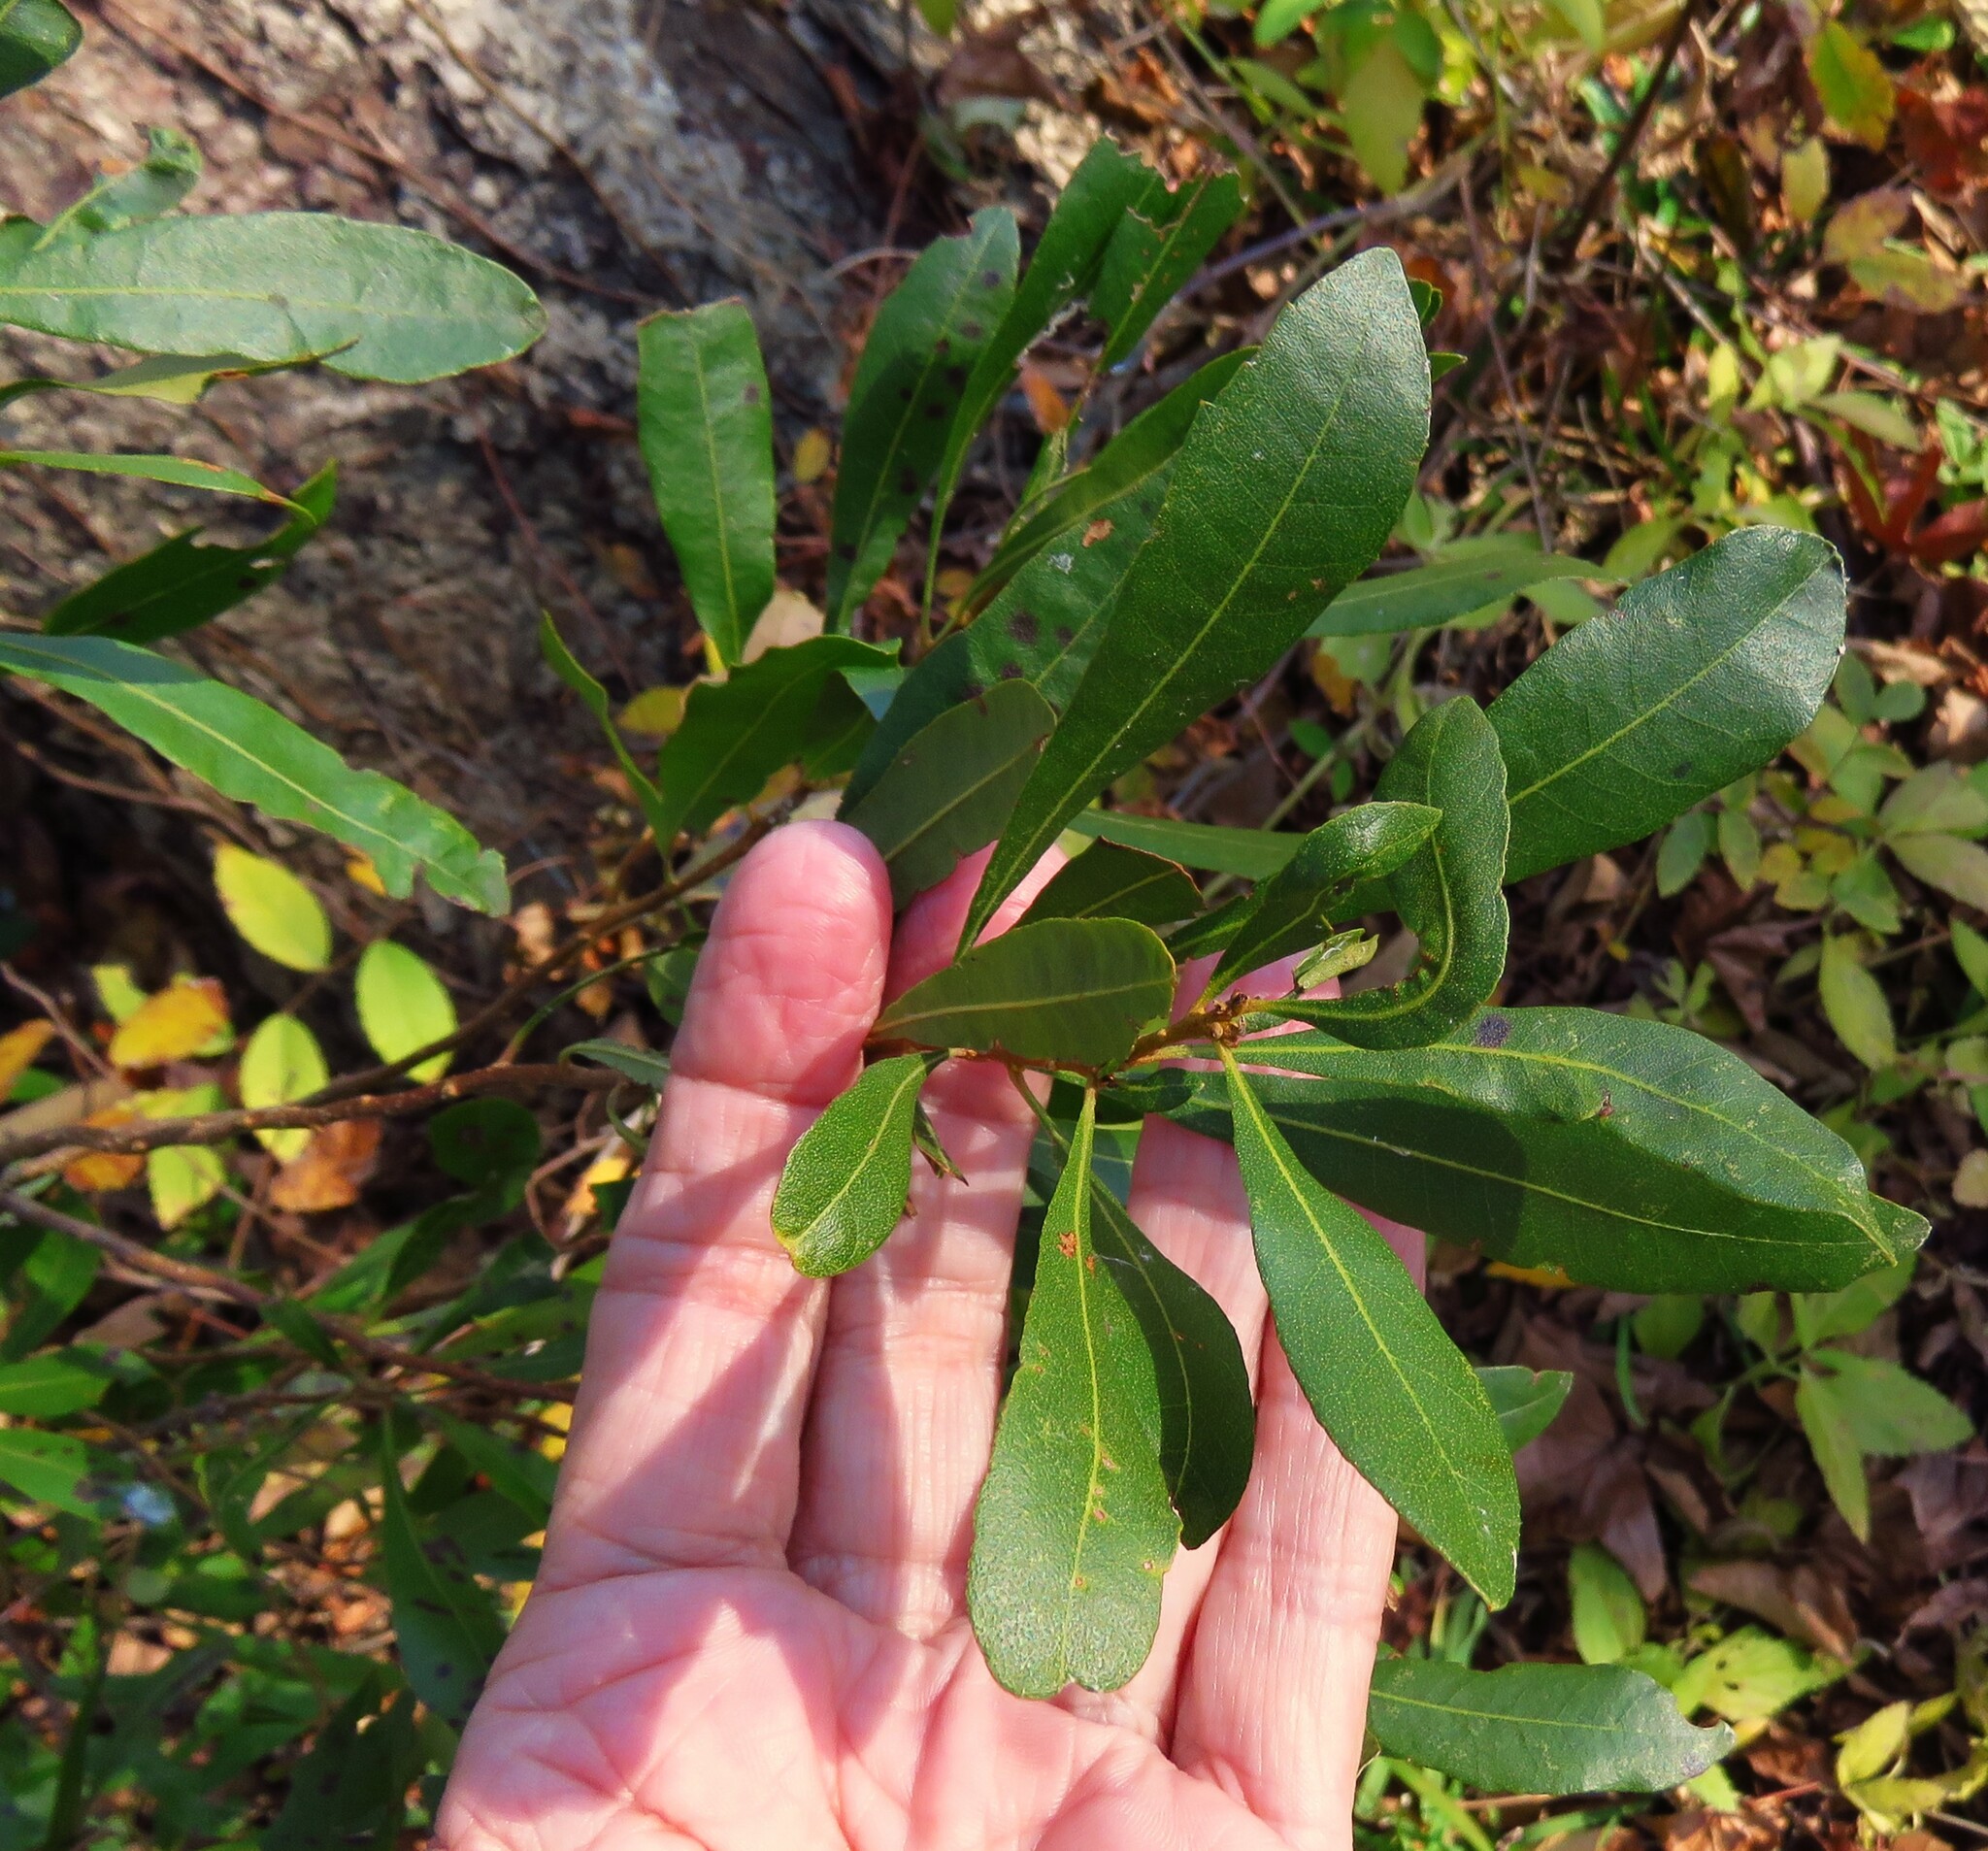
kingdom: Plantae
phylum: Tracheophyta
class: Magnoliopsida
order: Fagales
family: Myricaceae
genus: Morella
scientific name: Morella cerifera
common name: Wax myrtle
